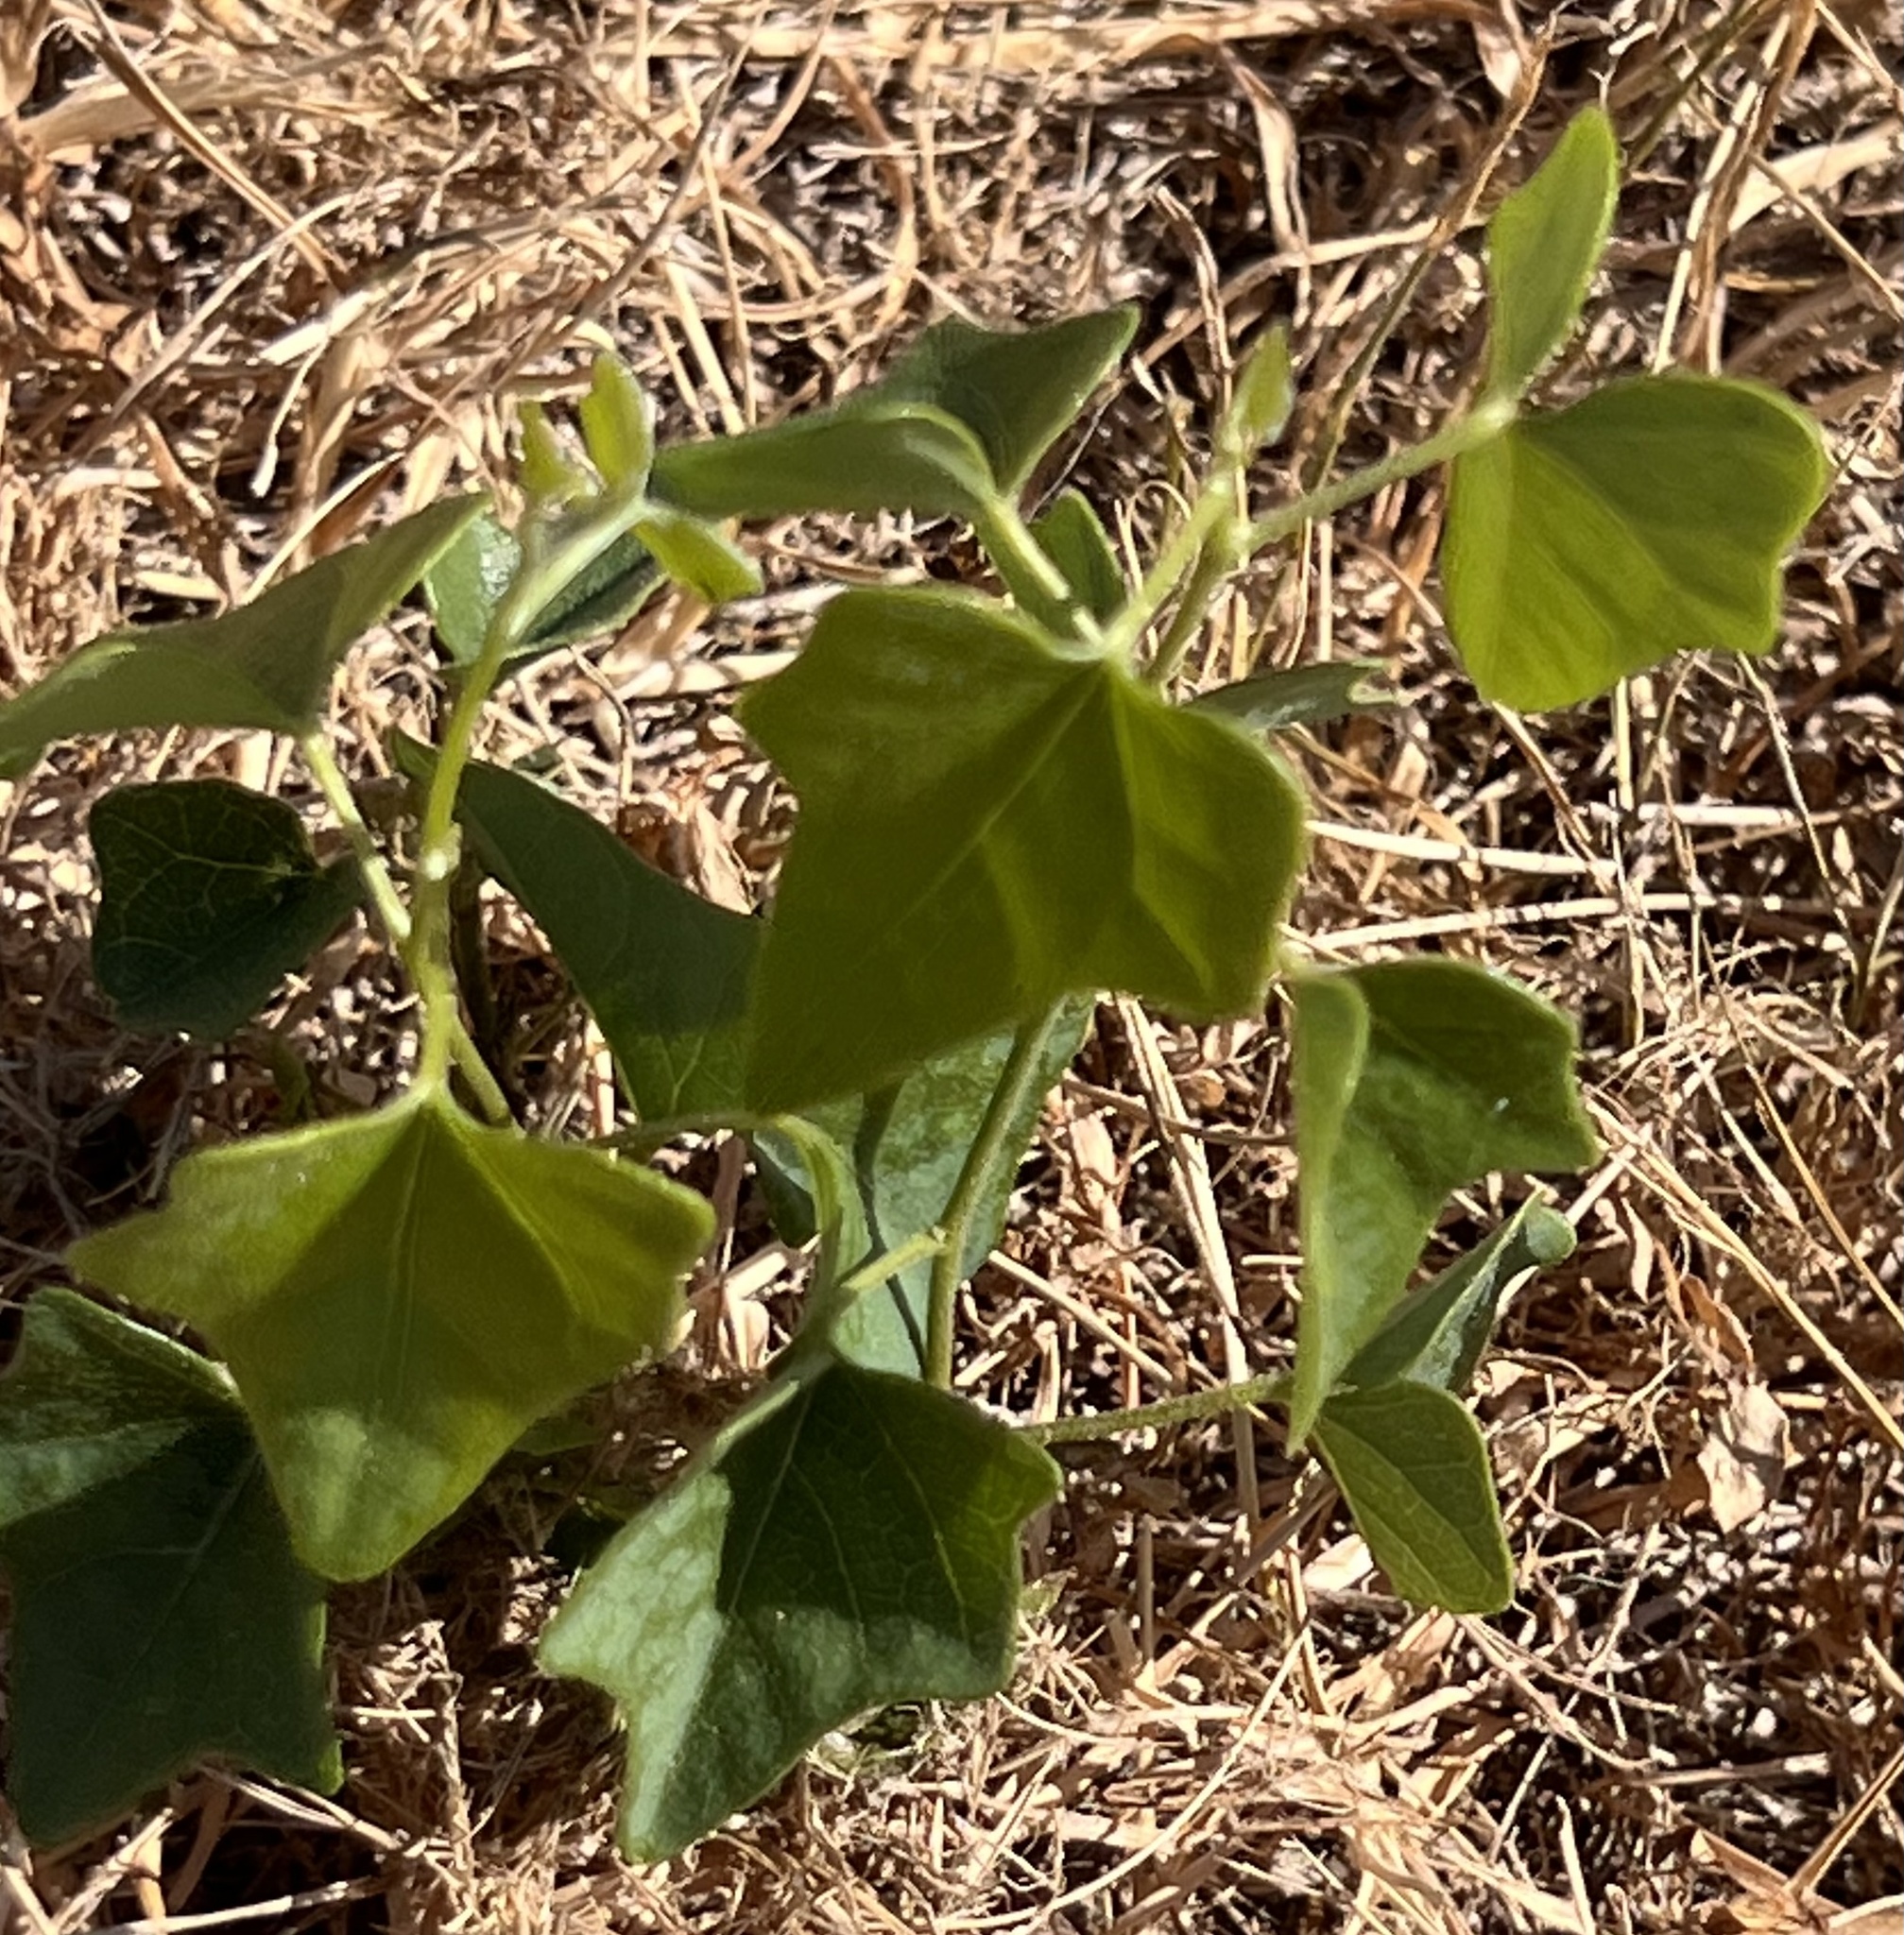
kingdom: Plantae
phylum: Tracheophyta
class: Magnoliopsida
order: Ranunculales
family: Menispermaceae
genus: Cocculus
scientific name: Cocculus carolinus
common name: Carolina moonseed
